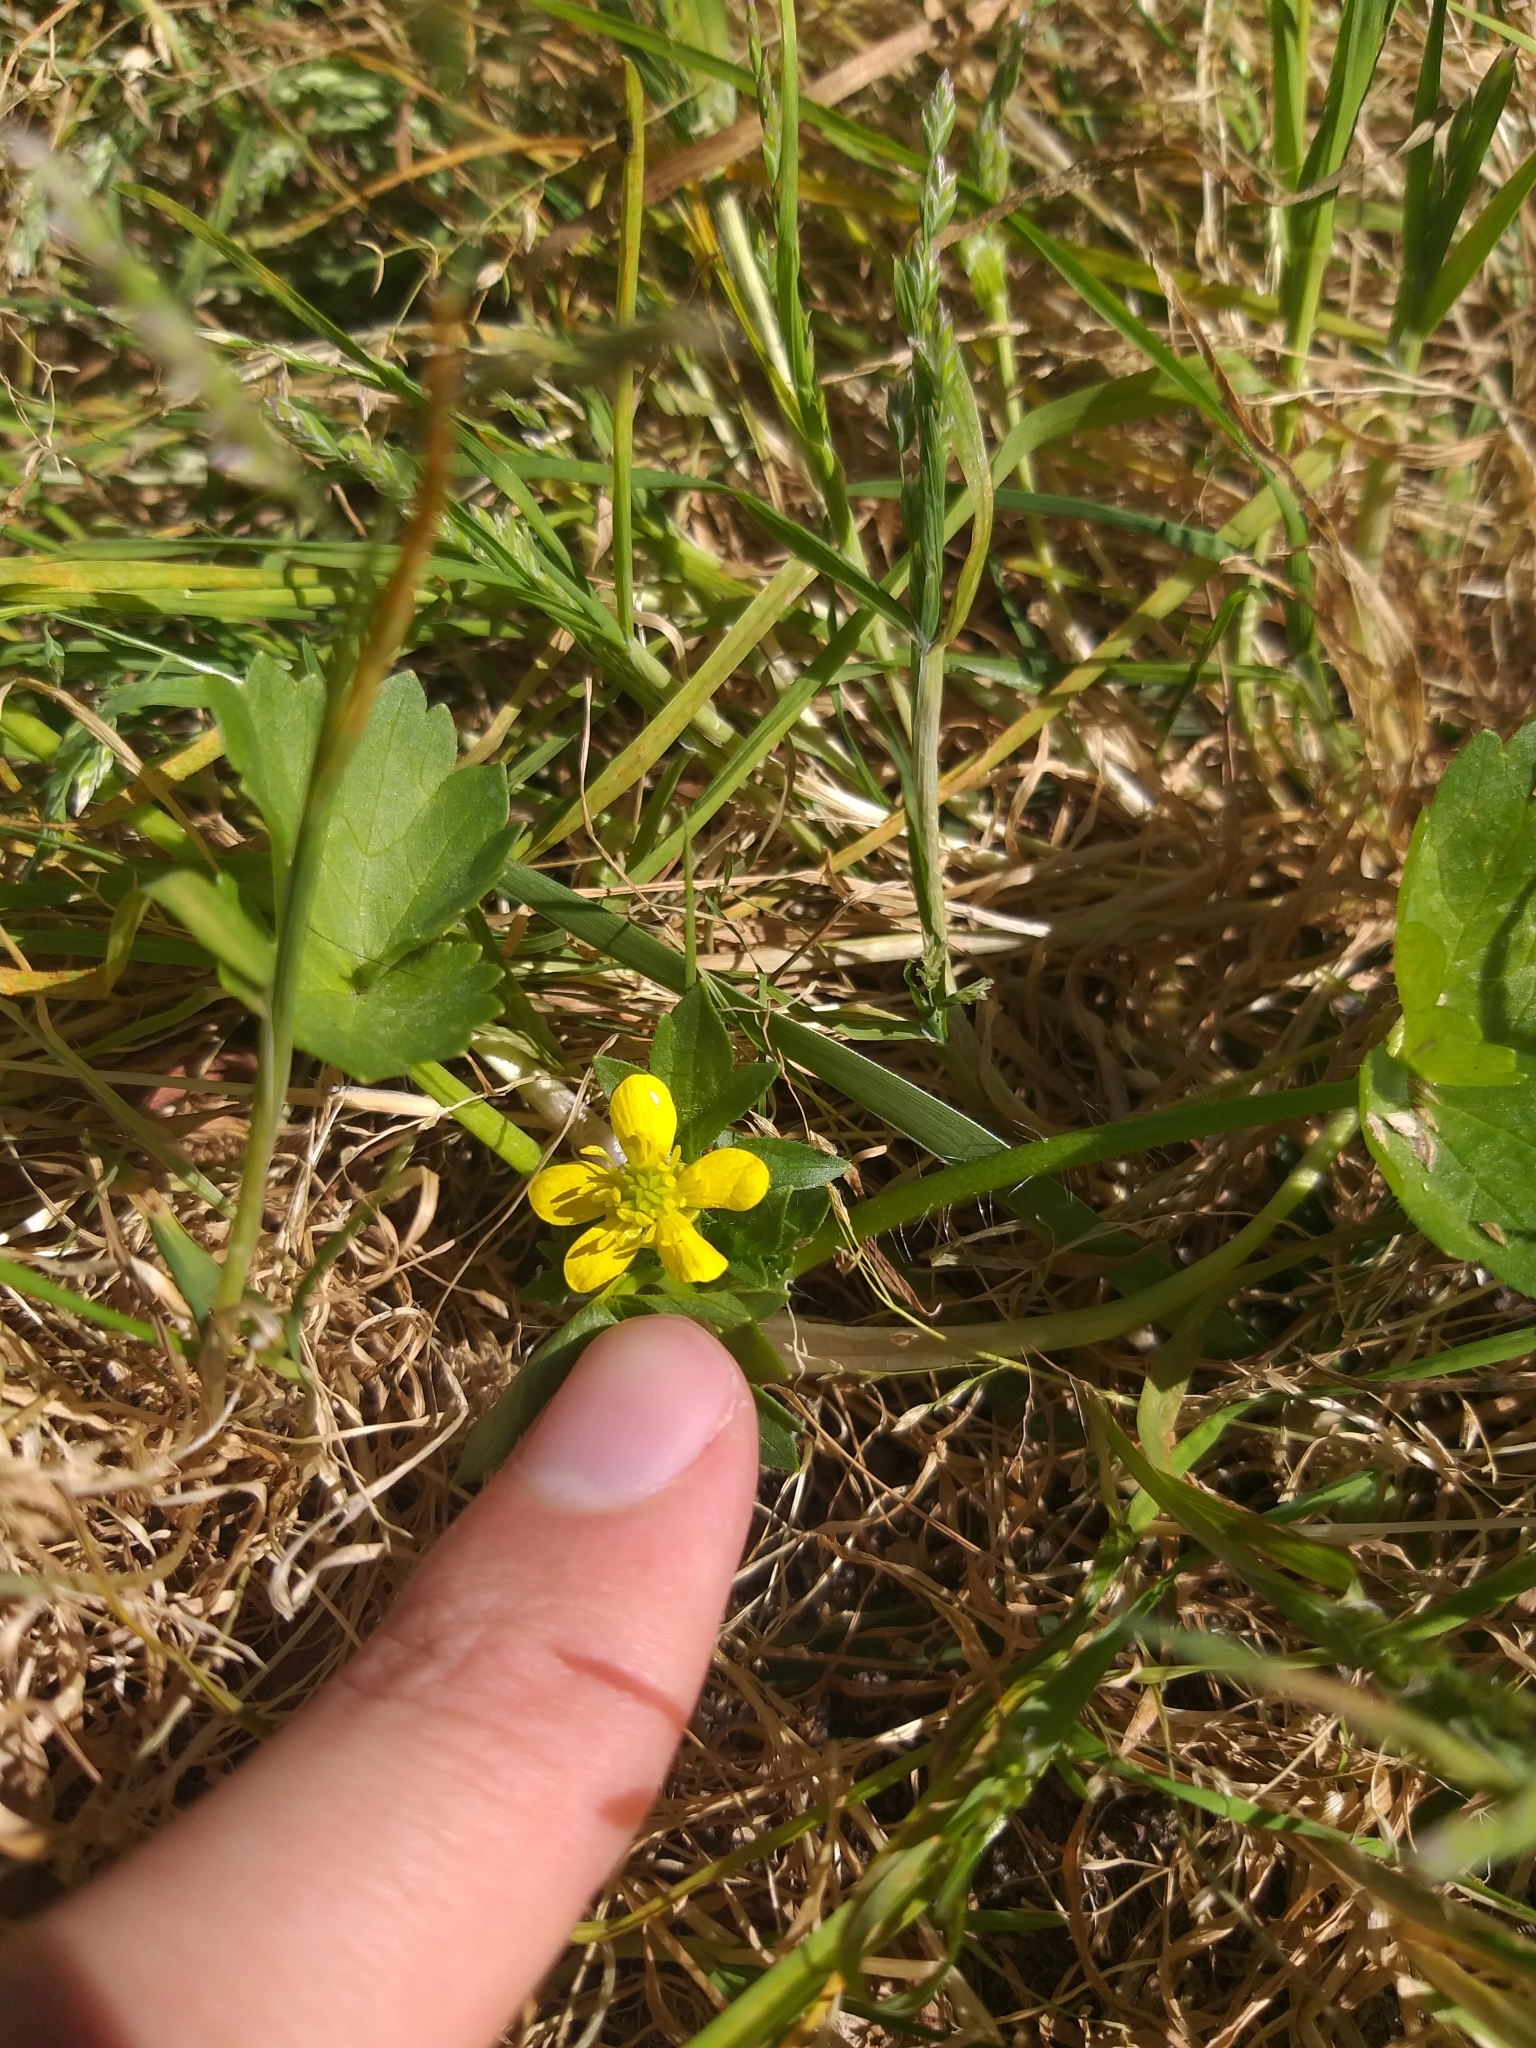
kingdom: Plantae
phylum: Tracheophyta
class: Magnoliopsida
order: Ranunculales
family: Ranunculaceae
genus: Ranunculus
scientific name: Ranunculus muricatus
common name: Rough-fruited buttercup
